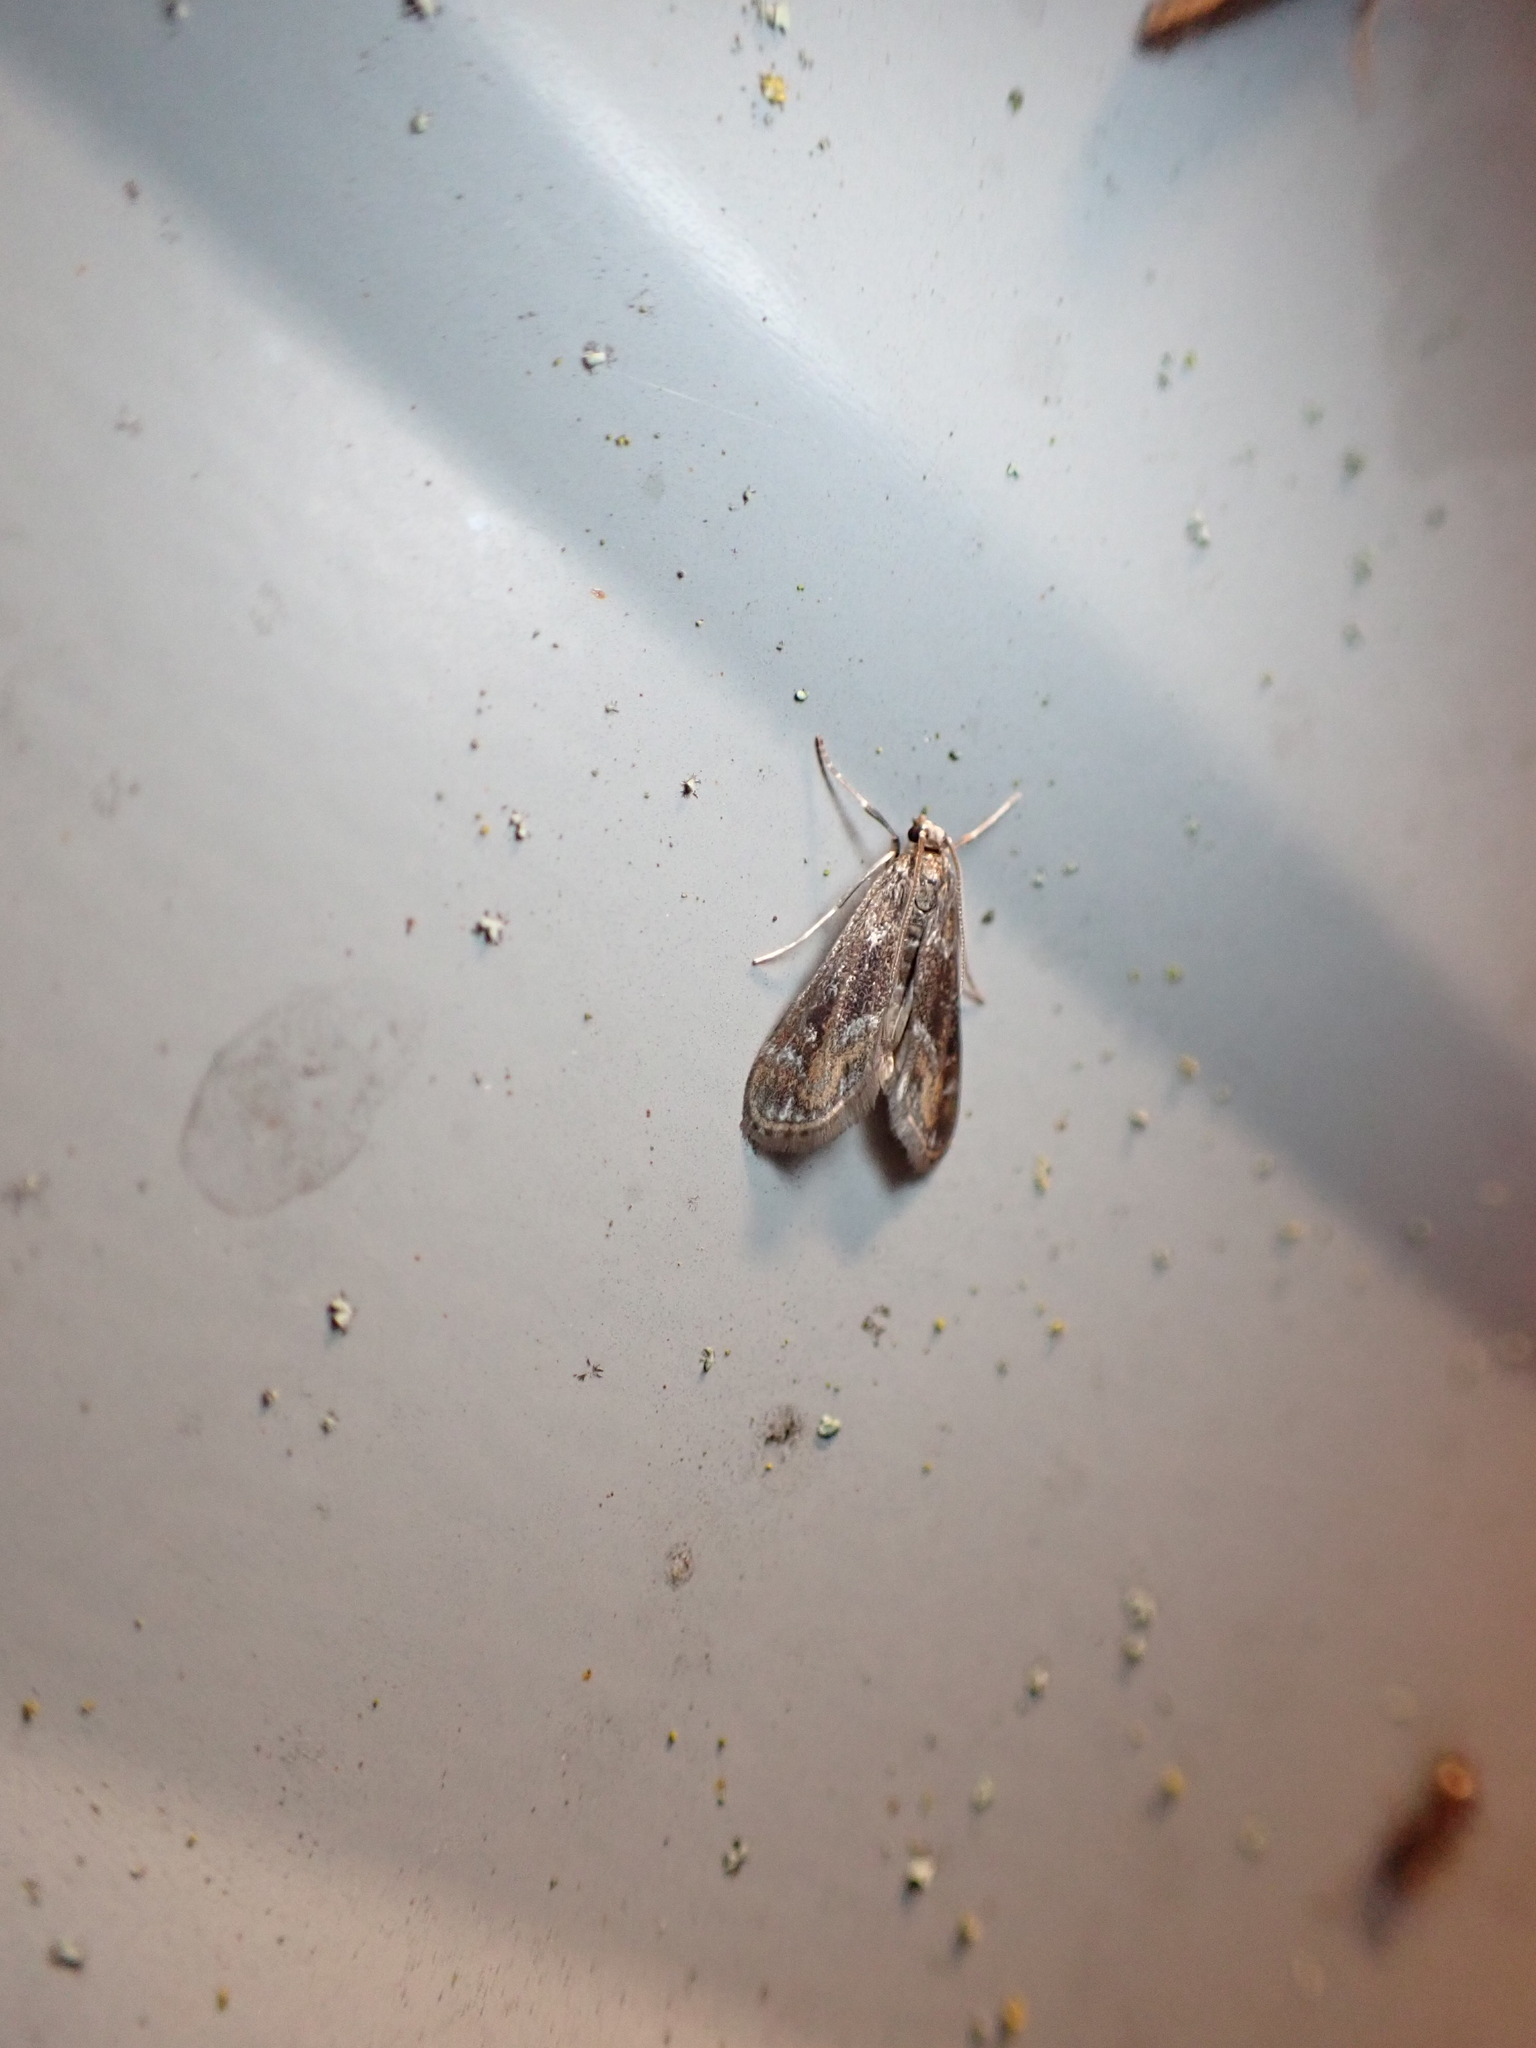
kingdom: Animalia
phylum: Arthropoda
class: Insecta
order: Lepidoptera
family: Crambidae
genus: Hygraula
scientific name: Hygraula nitens
